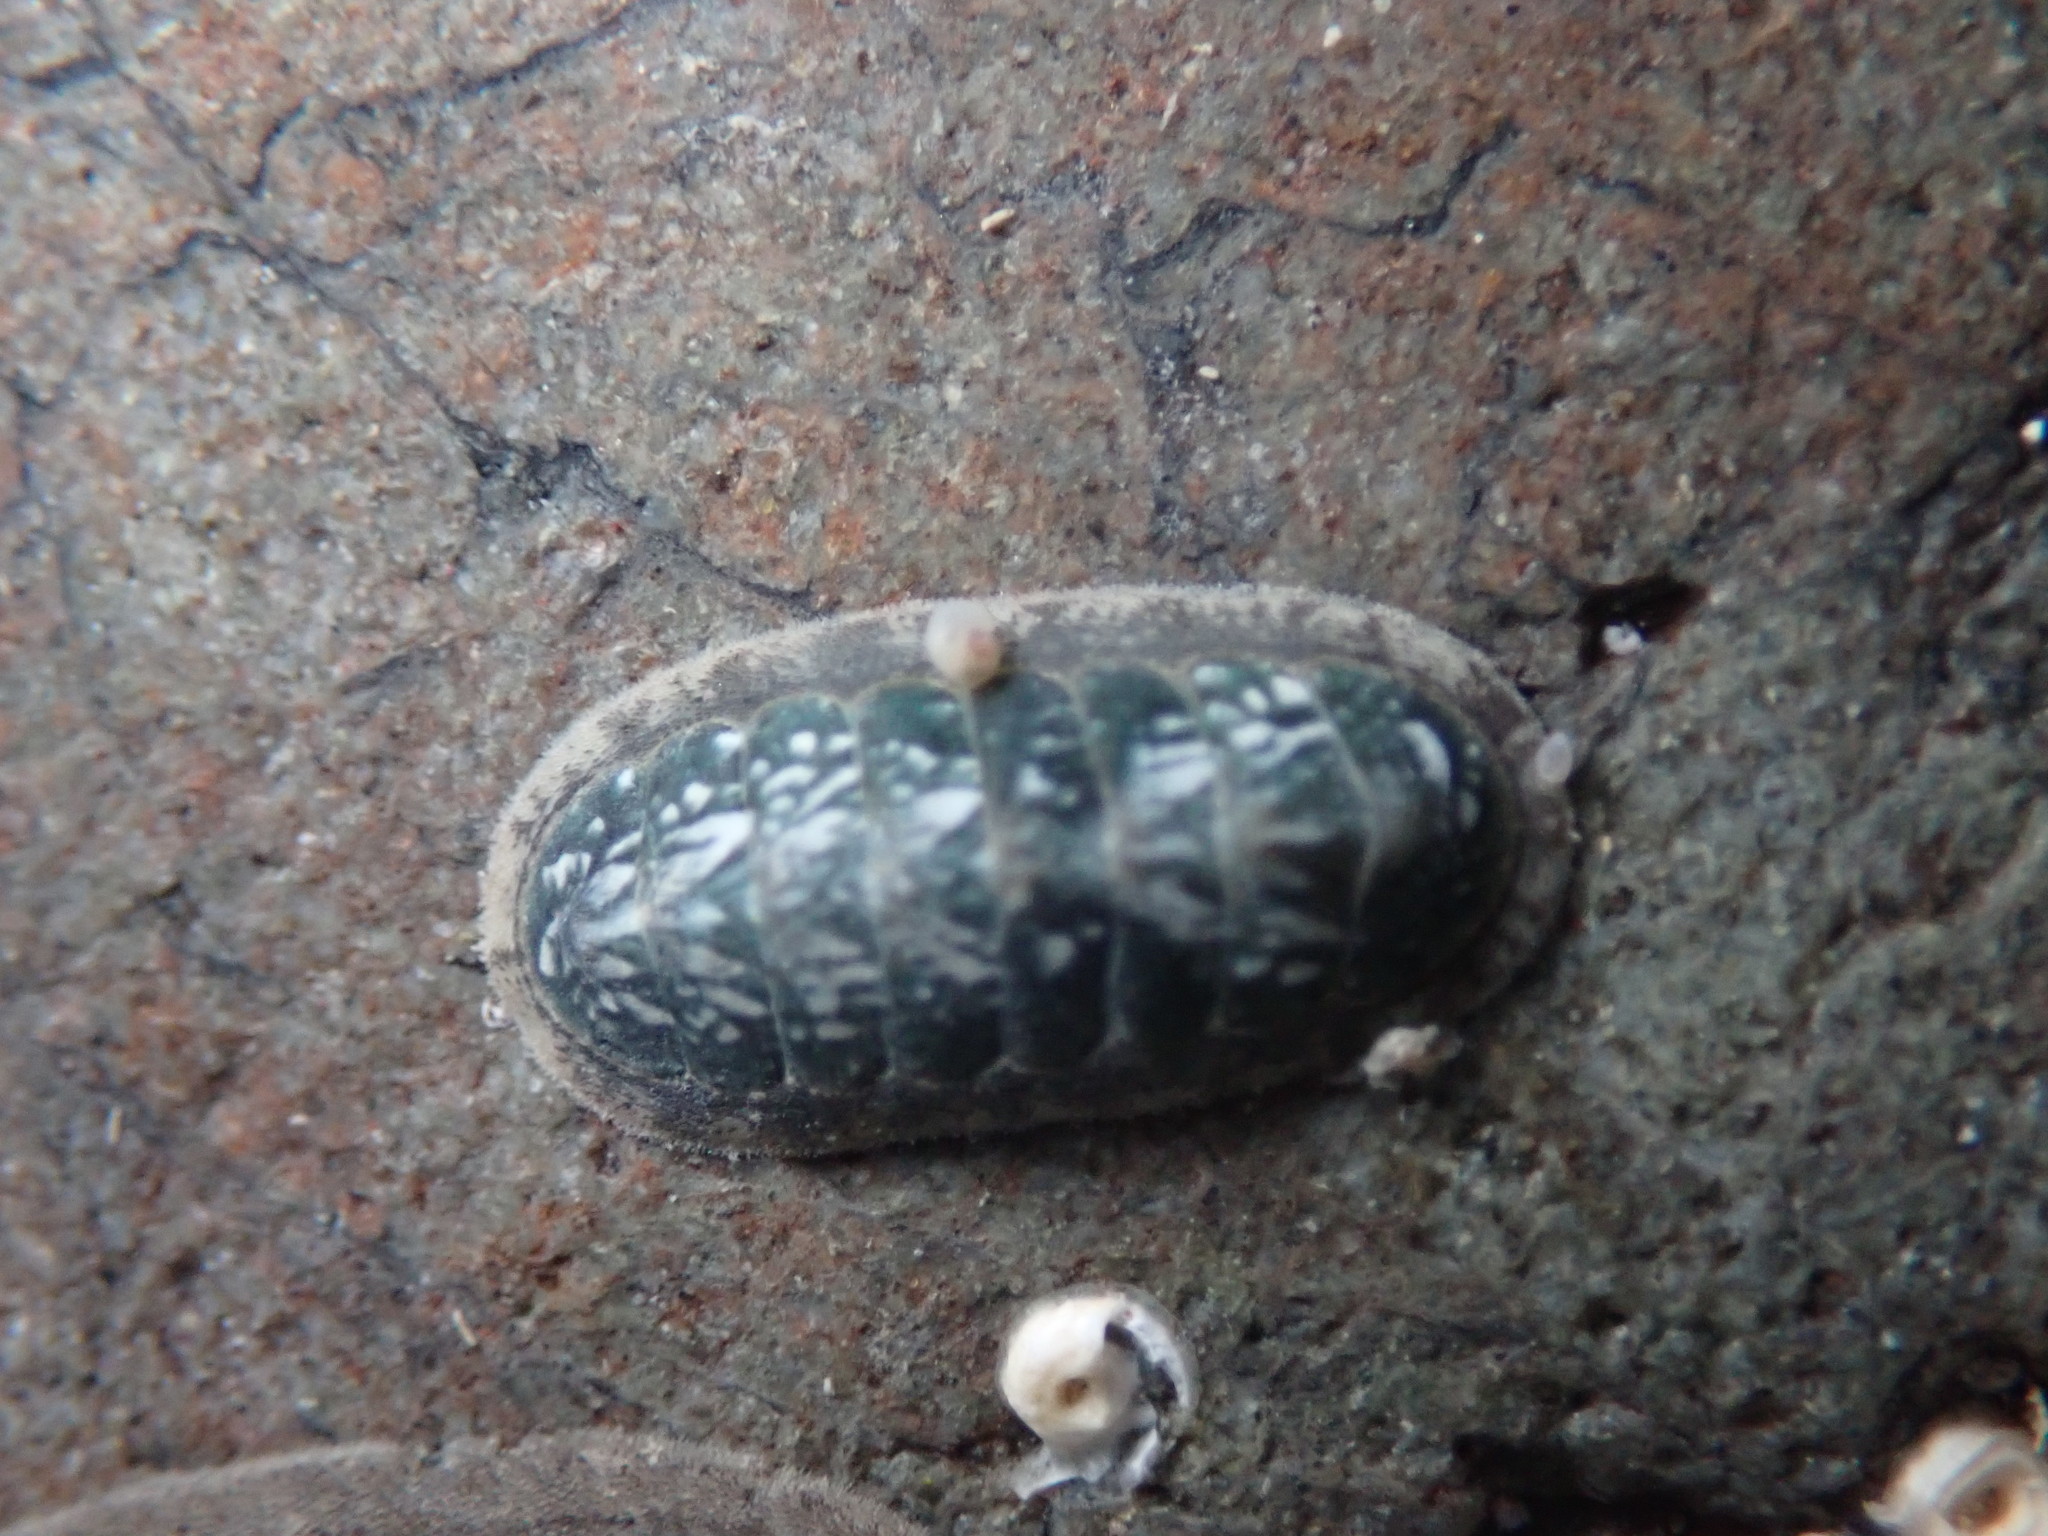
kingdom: Animalia
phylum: Mollusca
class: Polyplacophora
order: Chitonida
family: Ischnochitonidae
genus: Ischnochiton
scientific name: Ischnochiton maorianus
